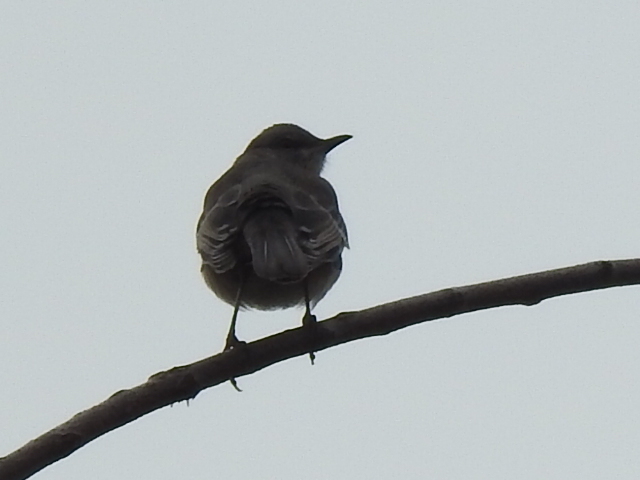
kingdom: Animalia
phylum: Chordata
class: Aves
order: Passeriformes
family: Mimidae
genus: Mimus
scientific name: Mimus polyglottos
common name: Northern mockingbird
